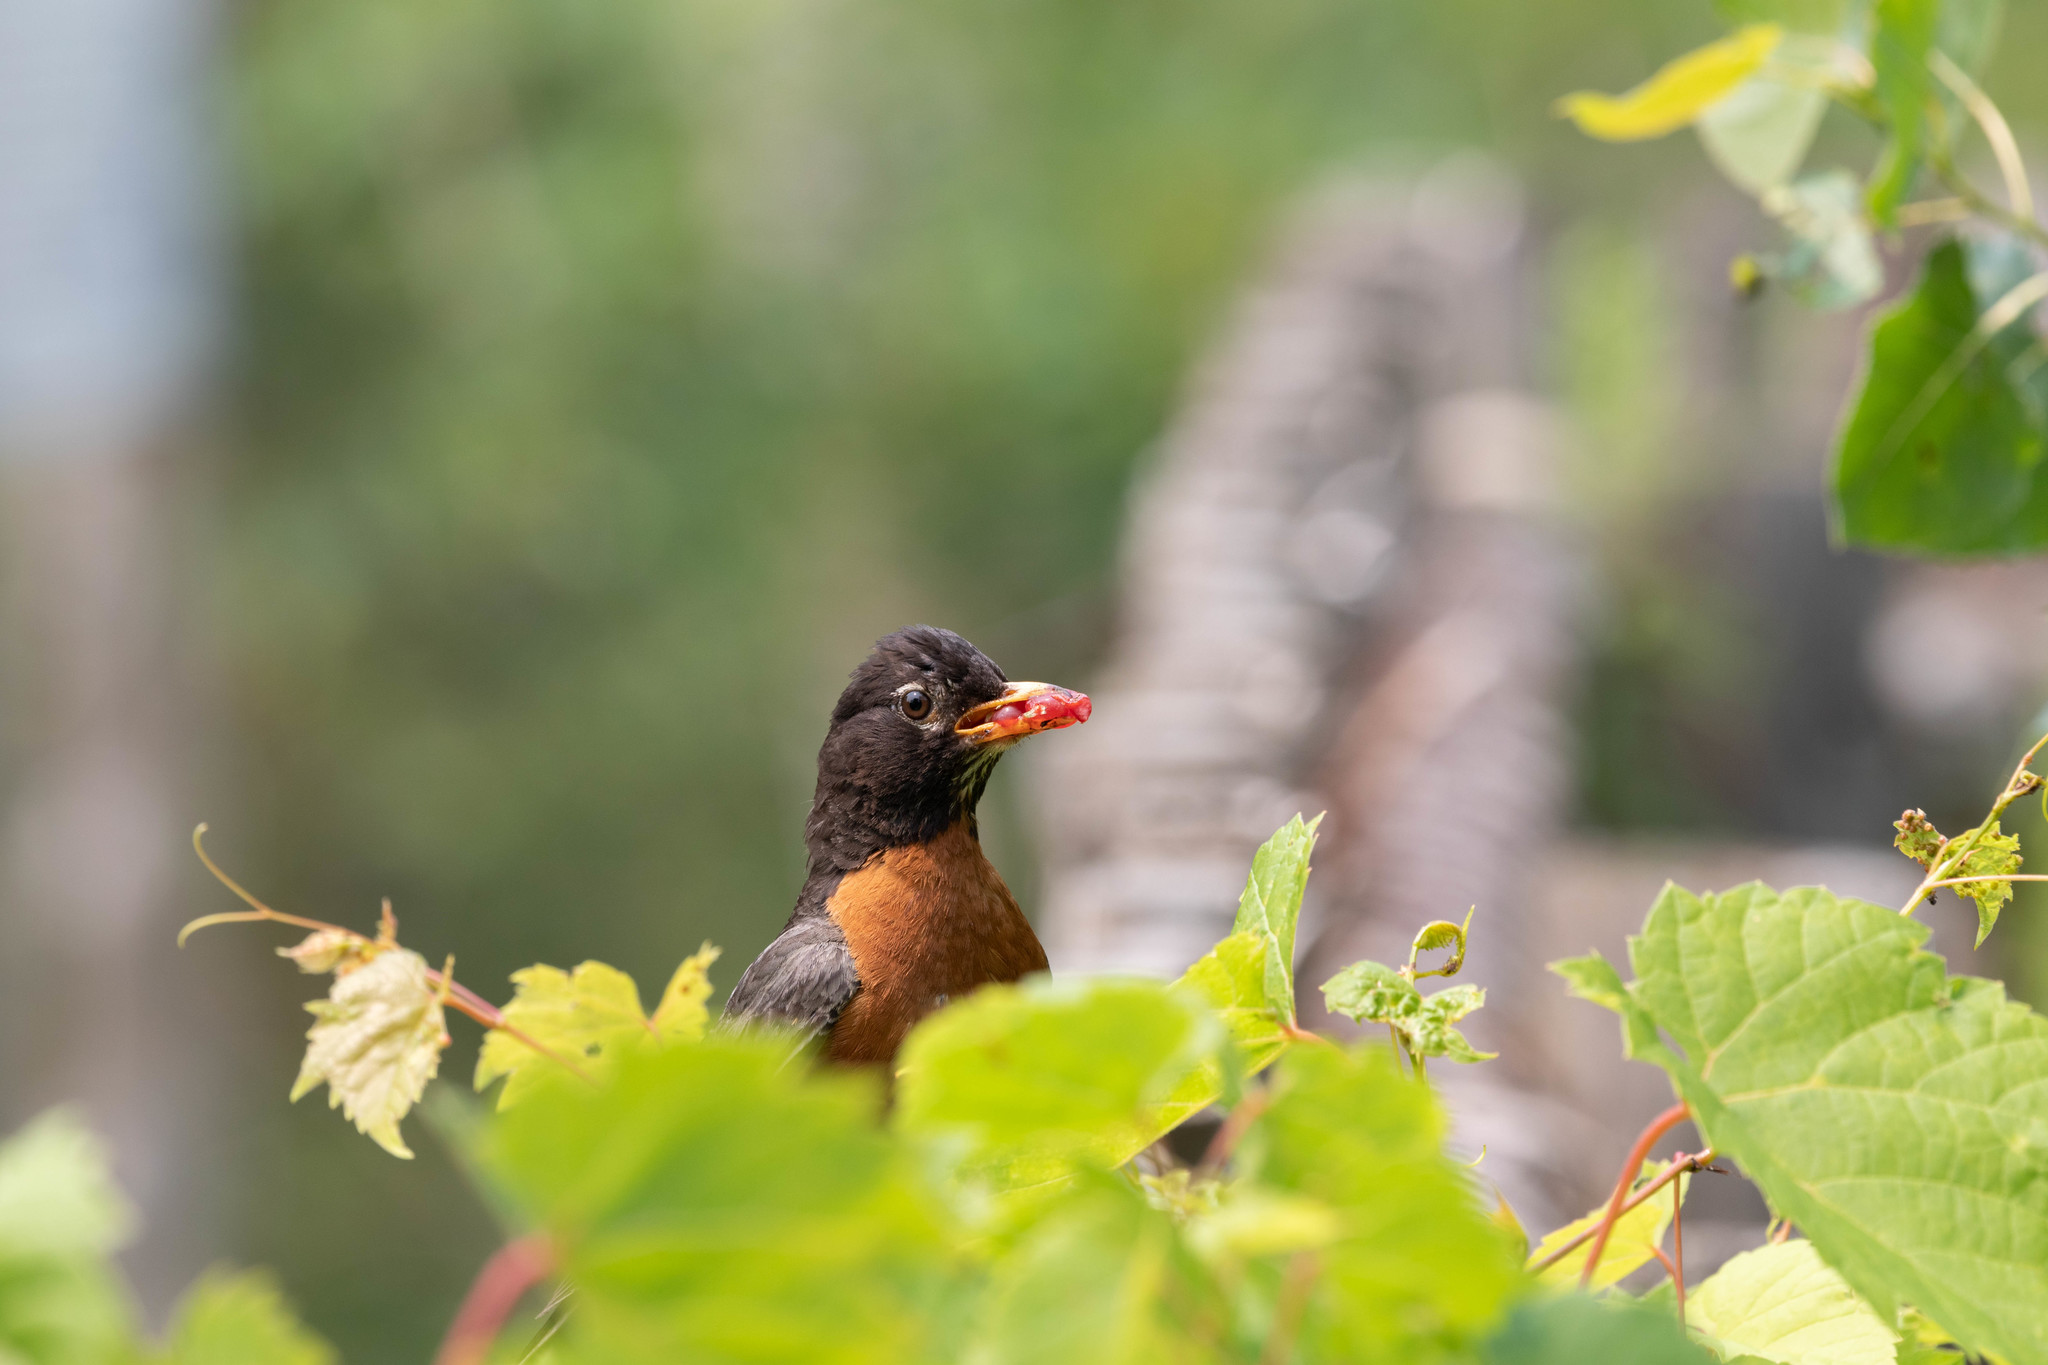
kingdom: Animalia
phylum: Chordata
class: Aves
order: Passeriformes
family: Turdidae
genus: Turdus
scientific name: Turdus migratorius
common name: American robin
